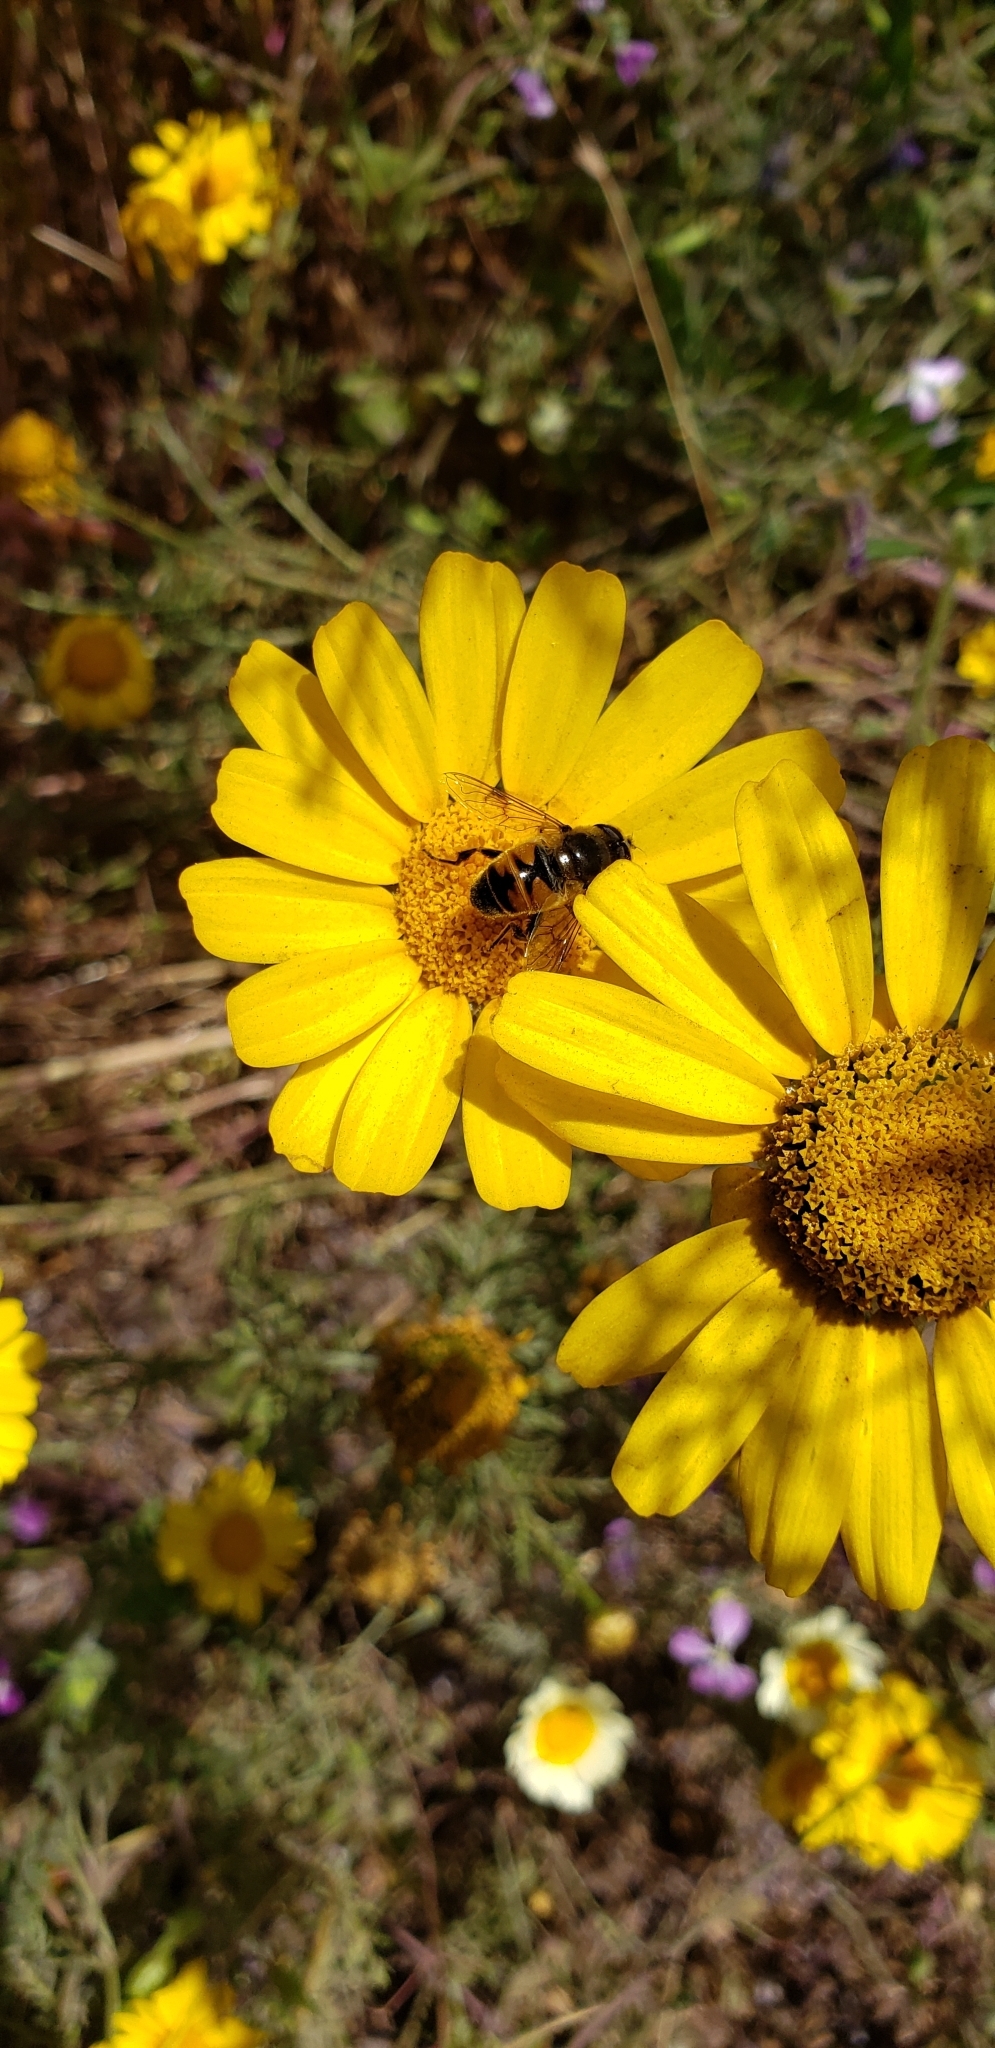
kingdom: Animalia
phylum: Arthropoda
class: Insecta
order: Diptera
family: Syrphidae
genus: Eristalis
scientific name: Eristalis tenax
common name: Drone fly
